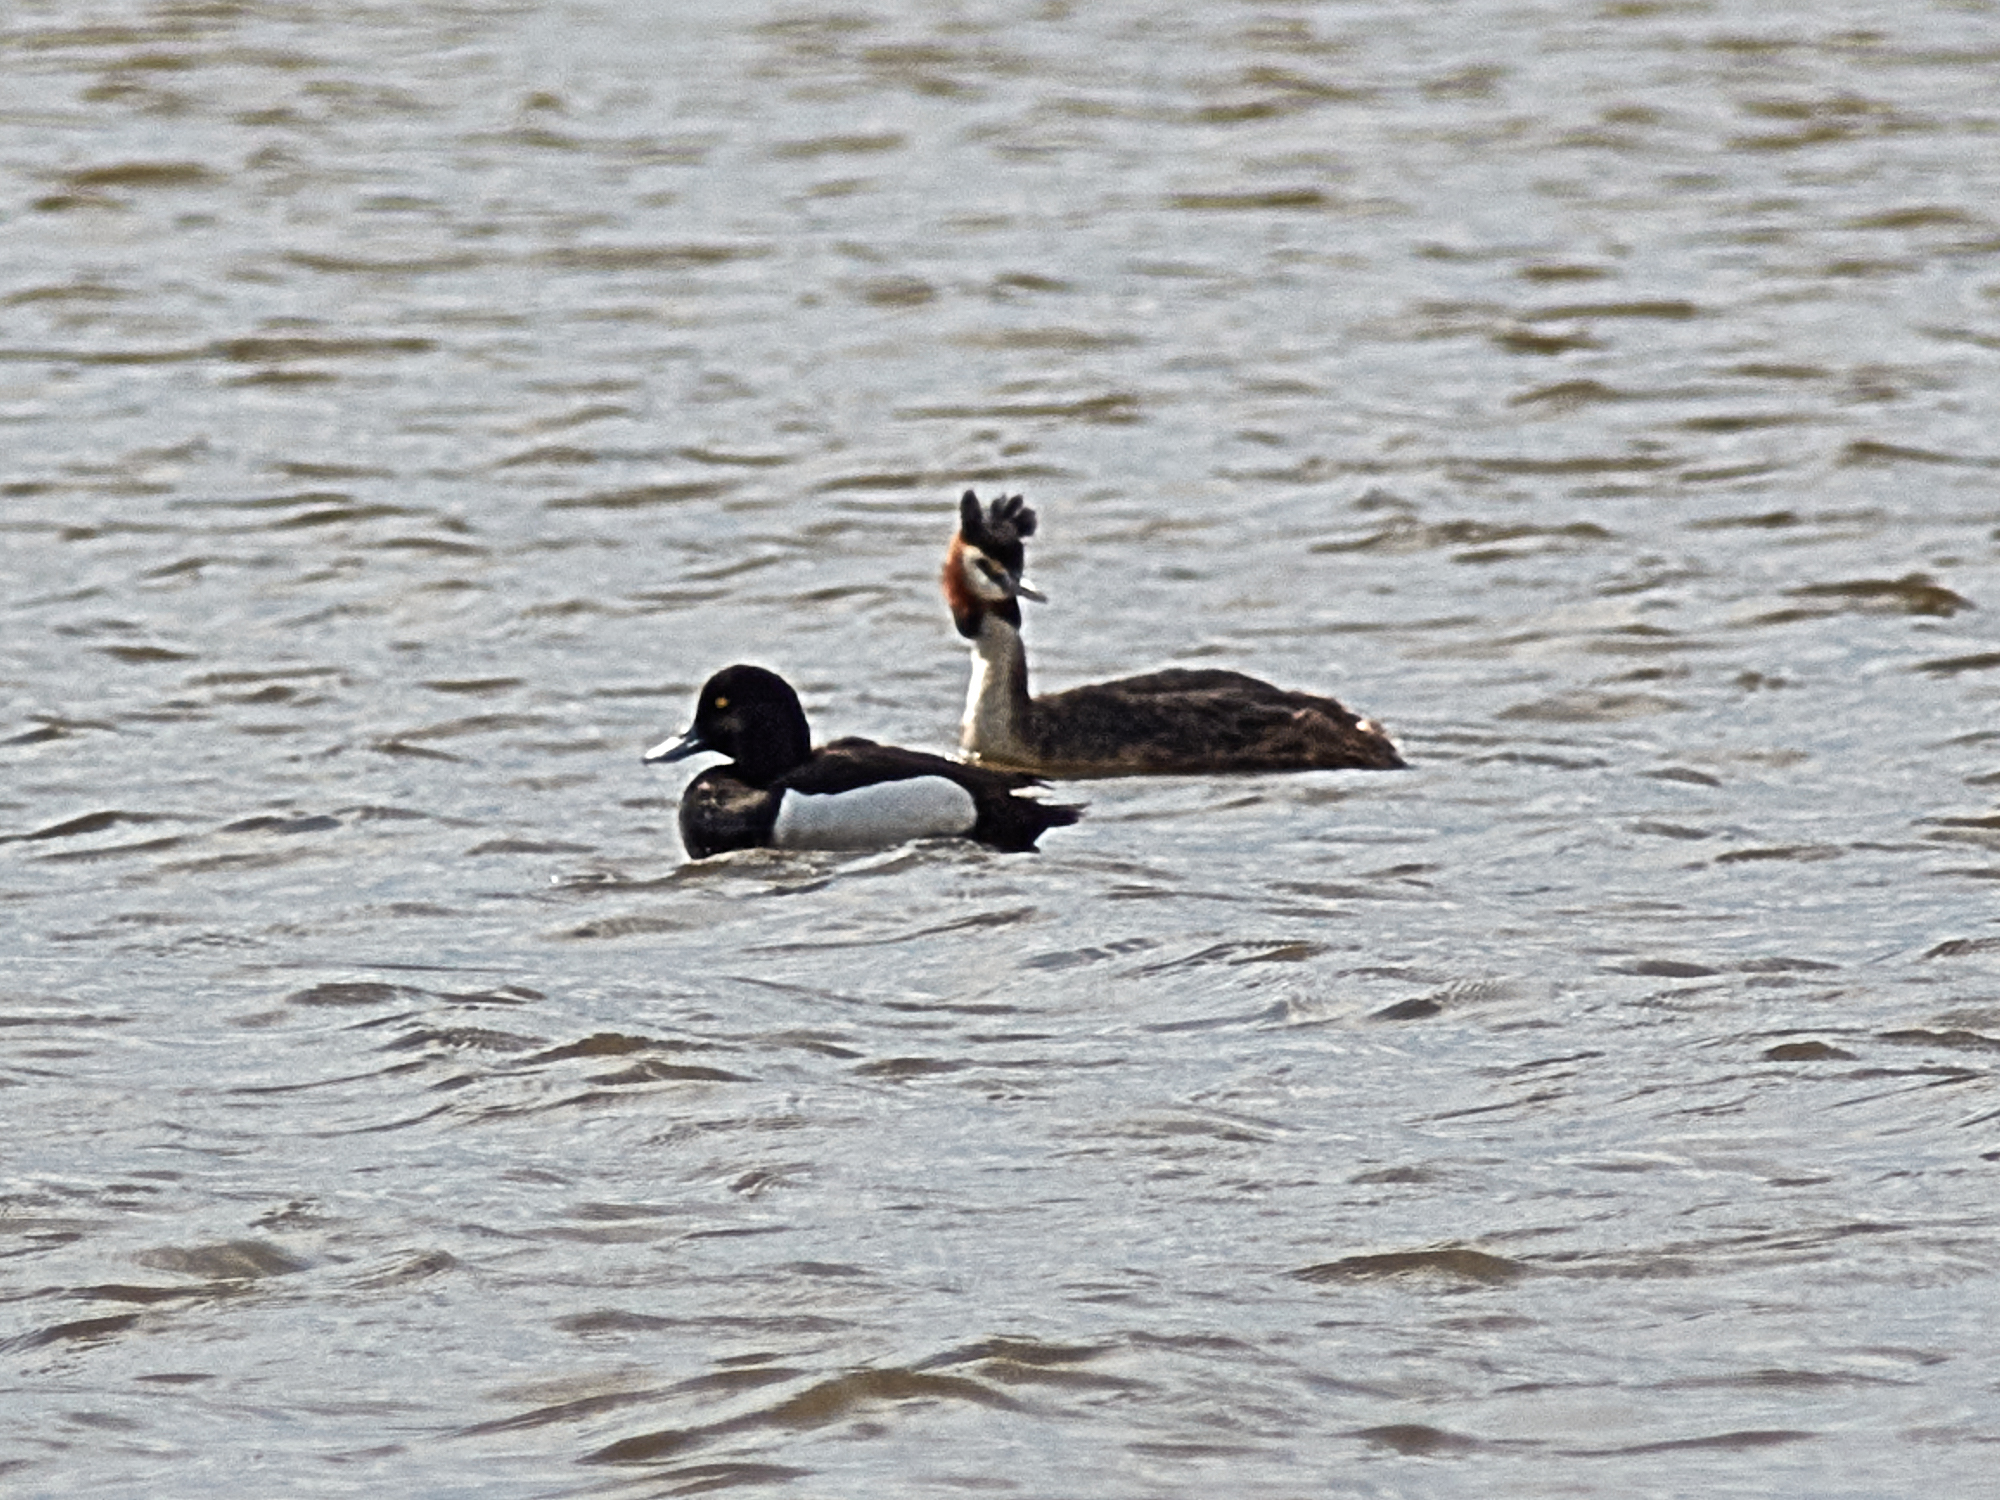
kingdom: Animalia
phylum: Chordata
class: Aves
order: Podicipediformes
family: Podicipedidae
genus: Podiceps
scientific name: Podiceps cristatus
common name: Great crested grebe
